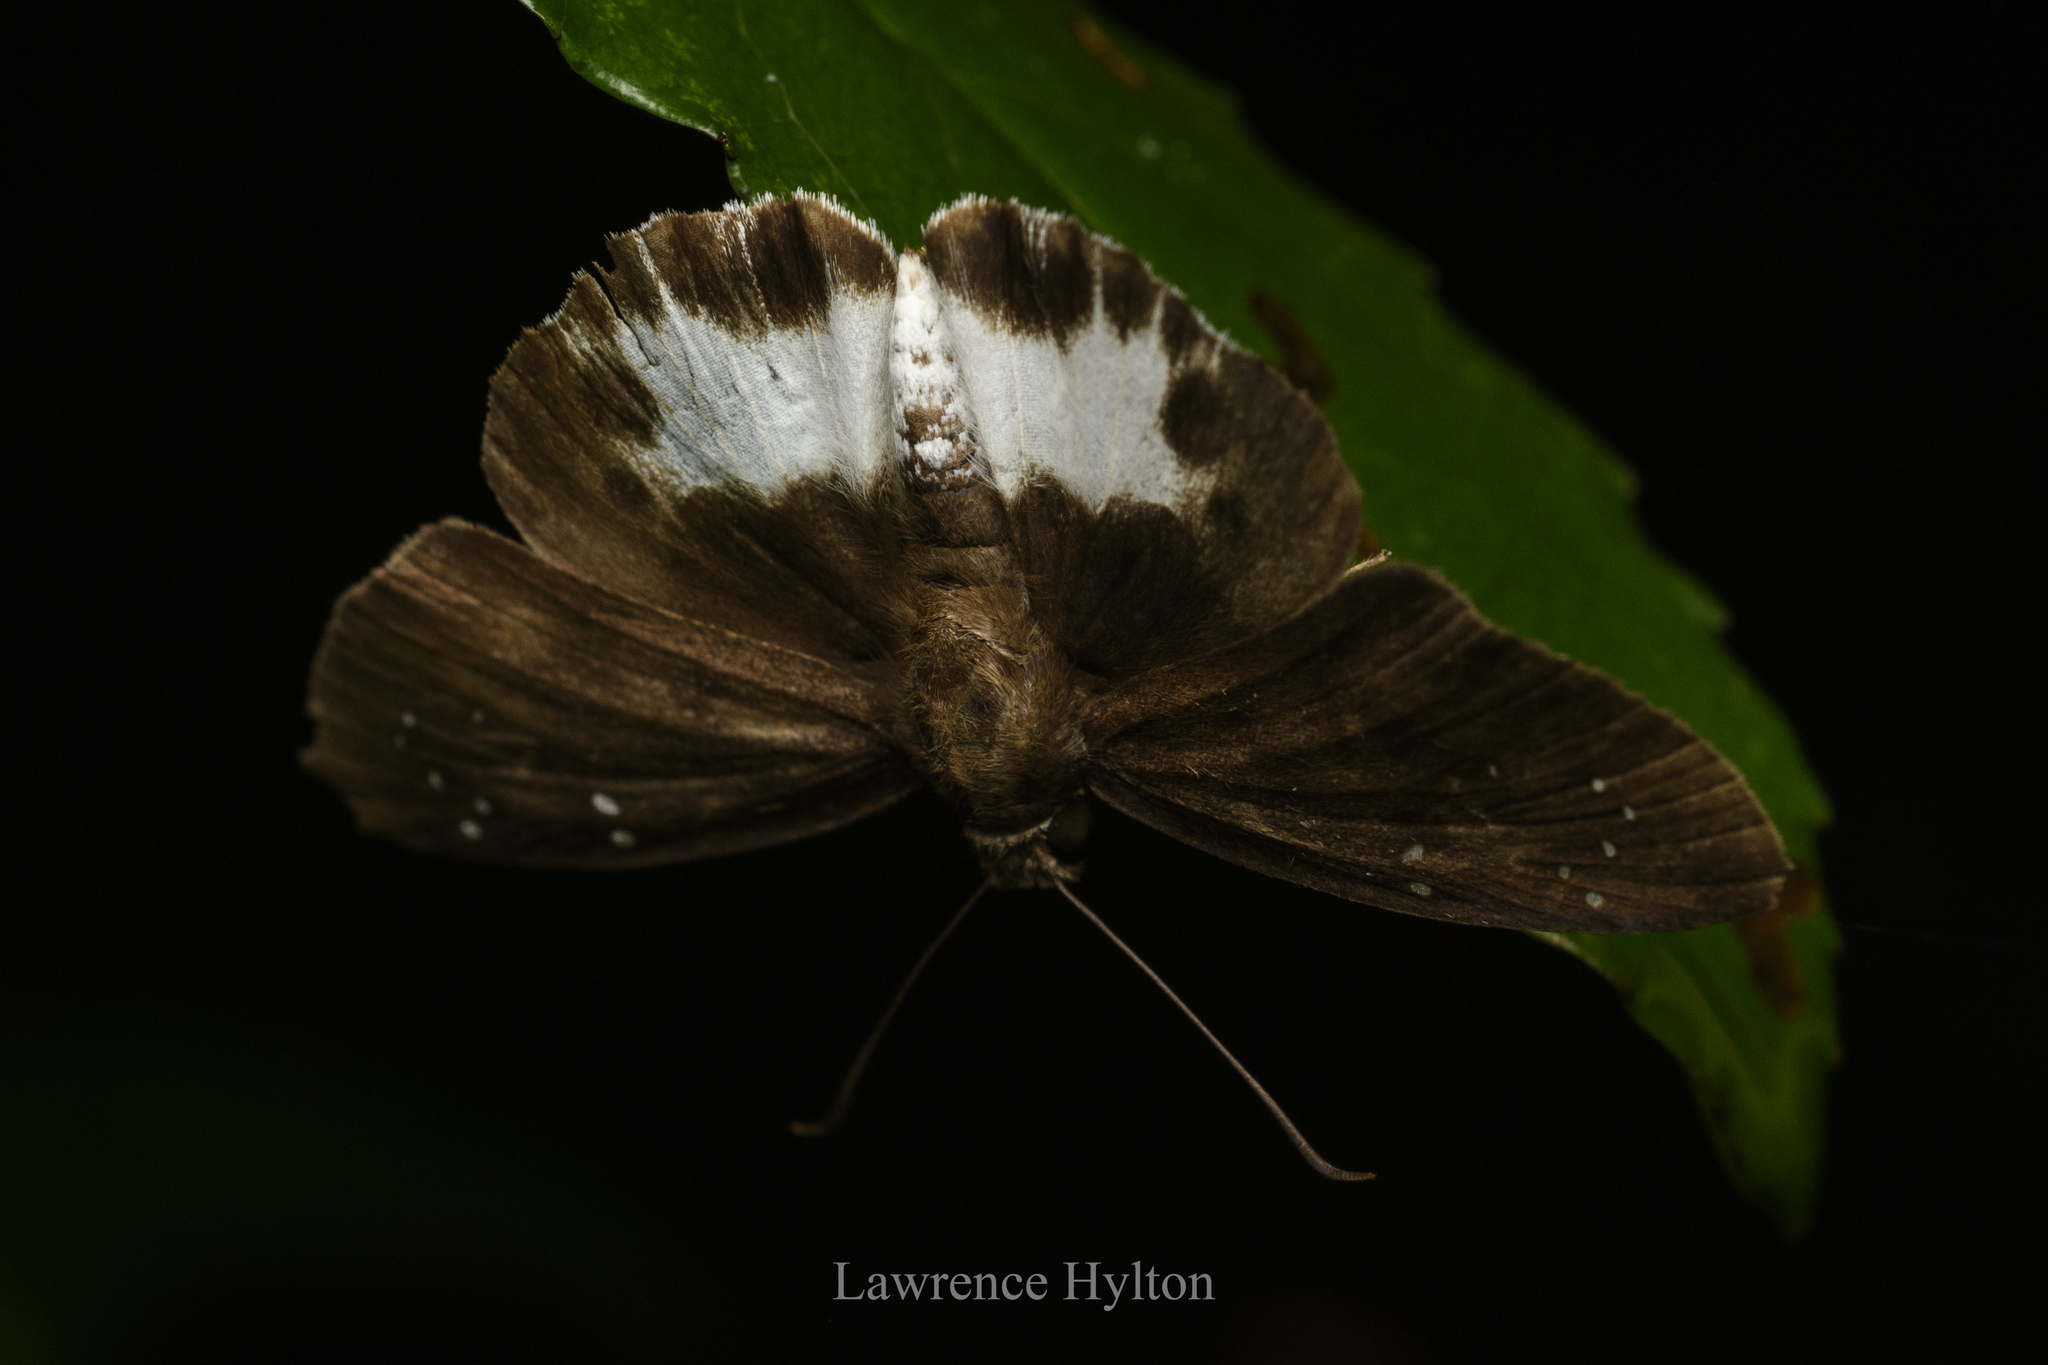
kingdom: Animalia
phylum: Arthropoda
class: Insecta
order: Lepidoptera
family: Hesperiidae
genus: Tagiades
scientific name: Tagiades litigiosa
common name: Water snow flat
